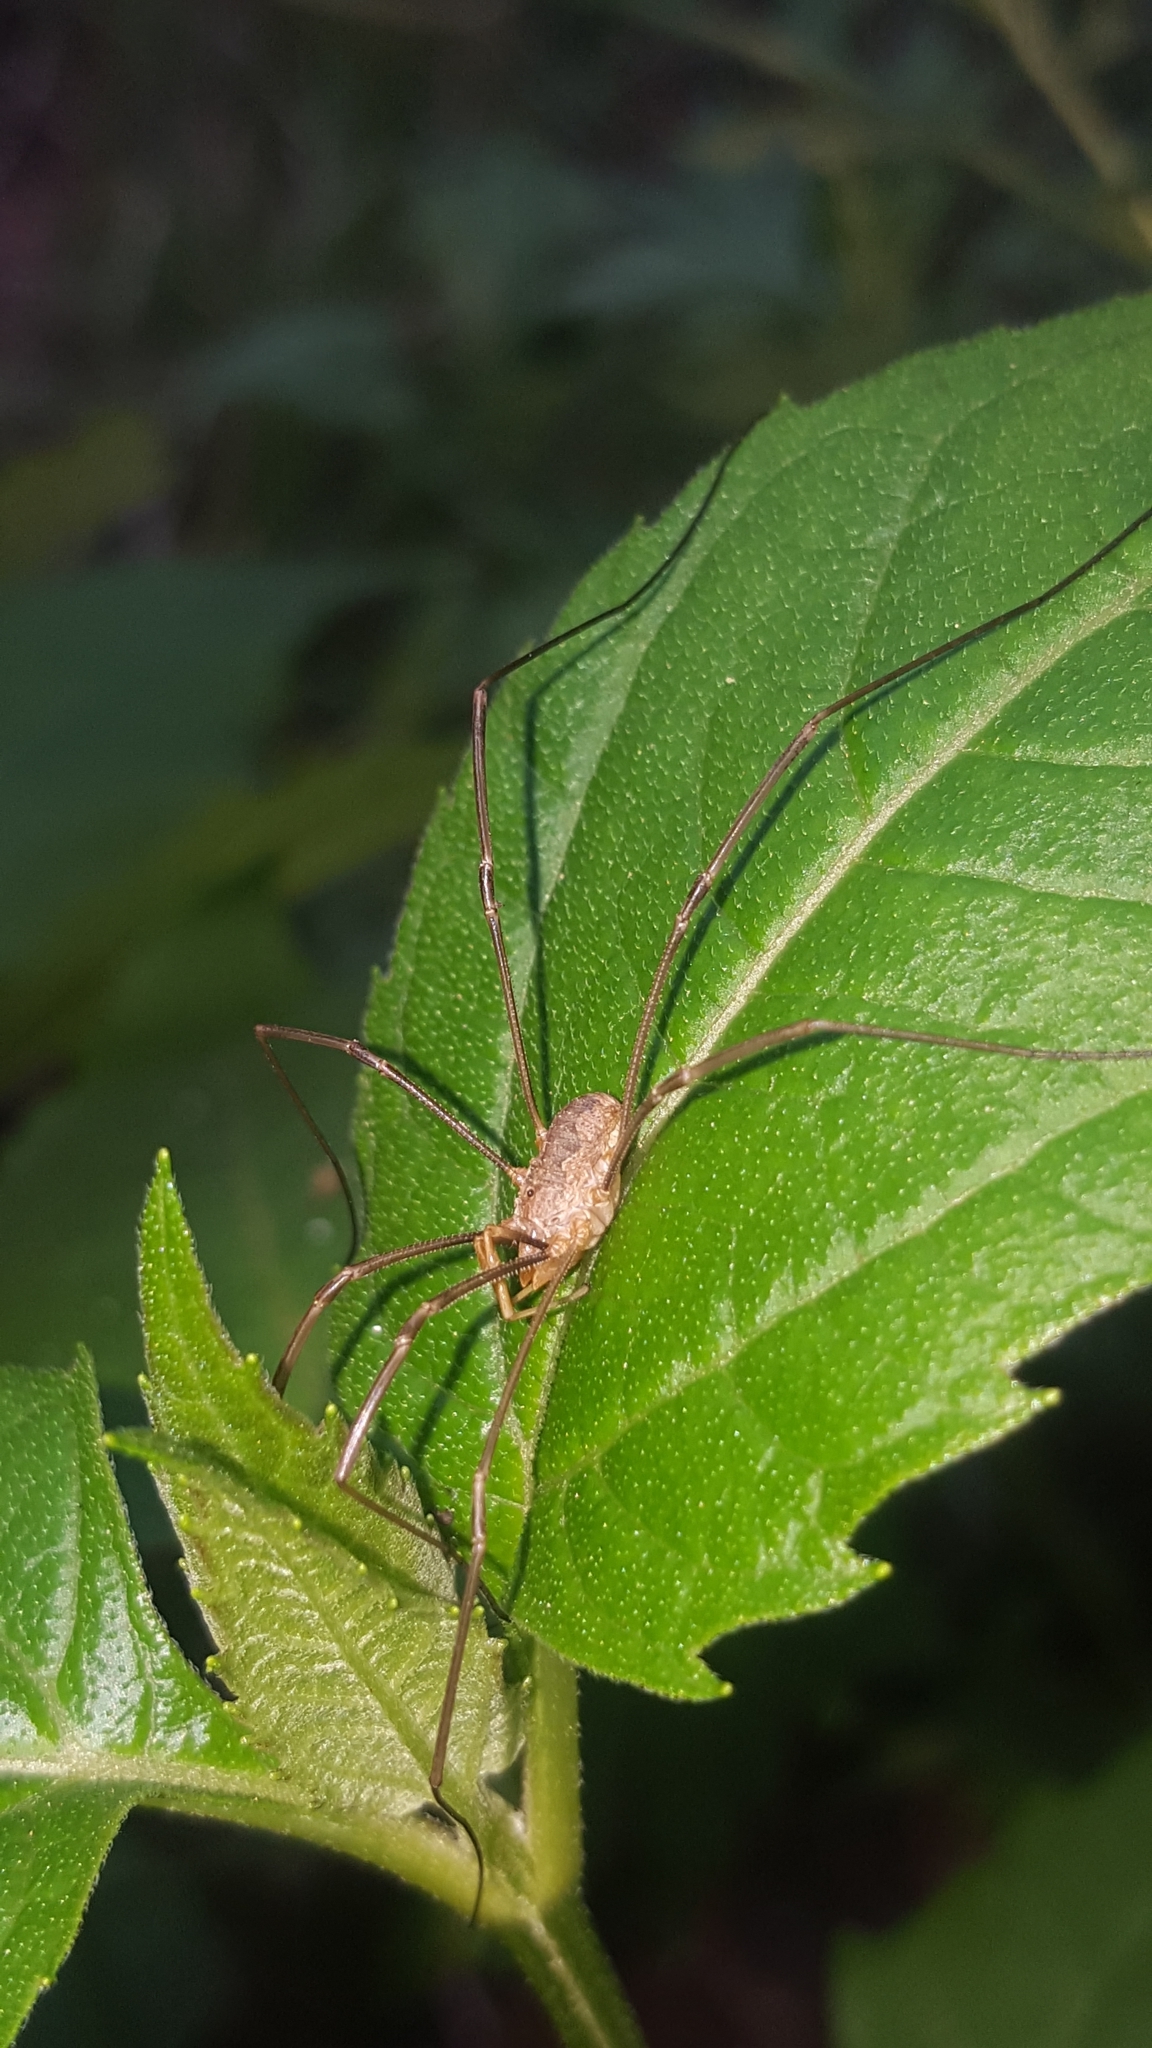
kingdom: Animalia
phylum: Arthropoda
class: Arachnida
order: Opiliones
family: Phalangiidae
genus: Phalangium
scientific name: Phalangium opilio
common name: Daddy longleg
